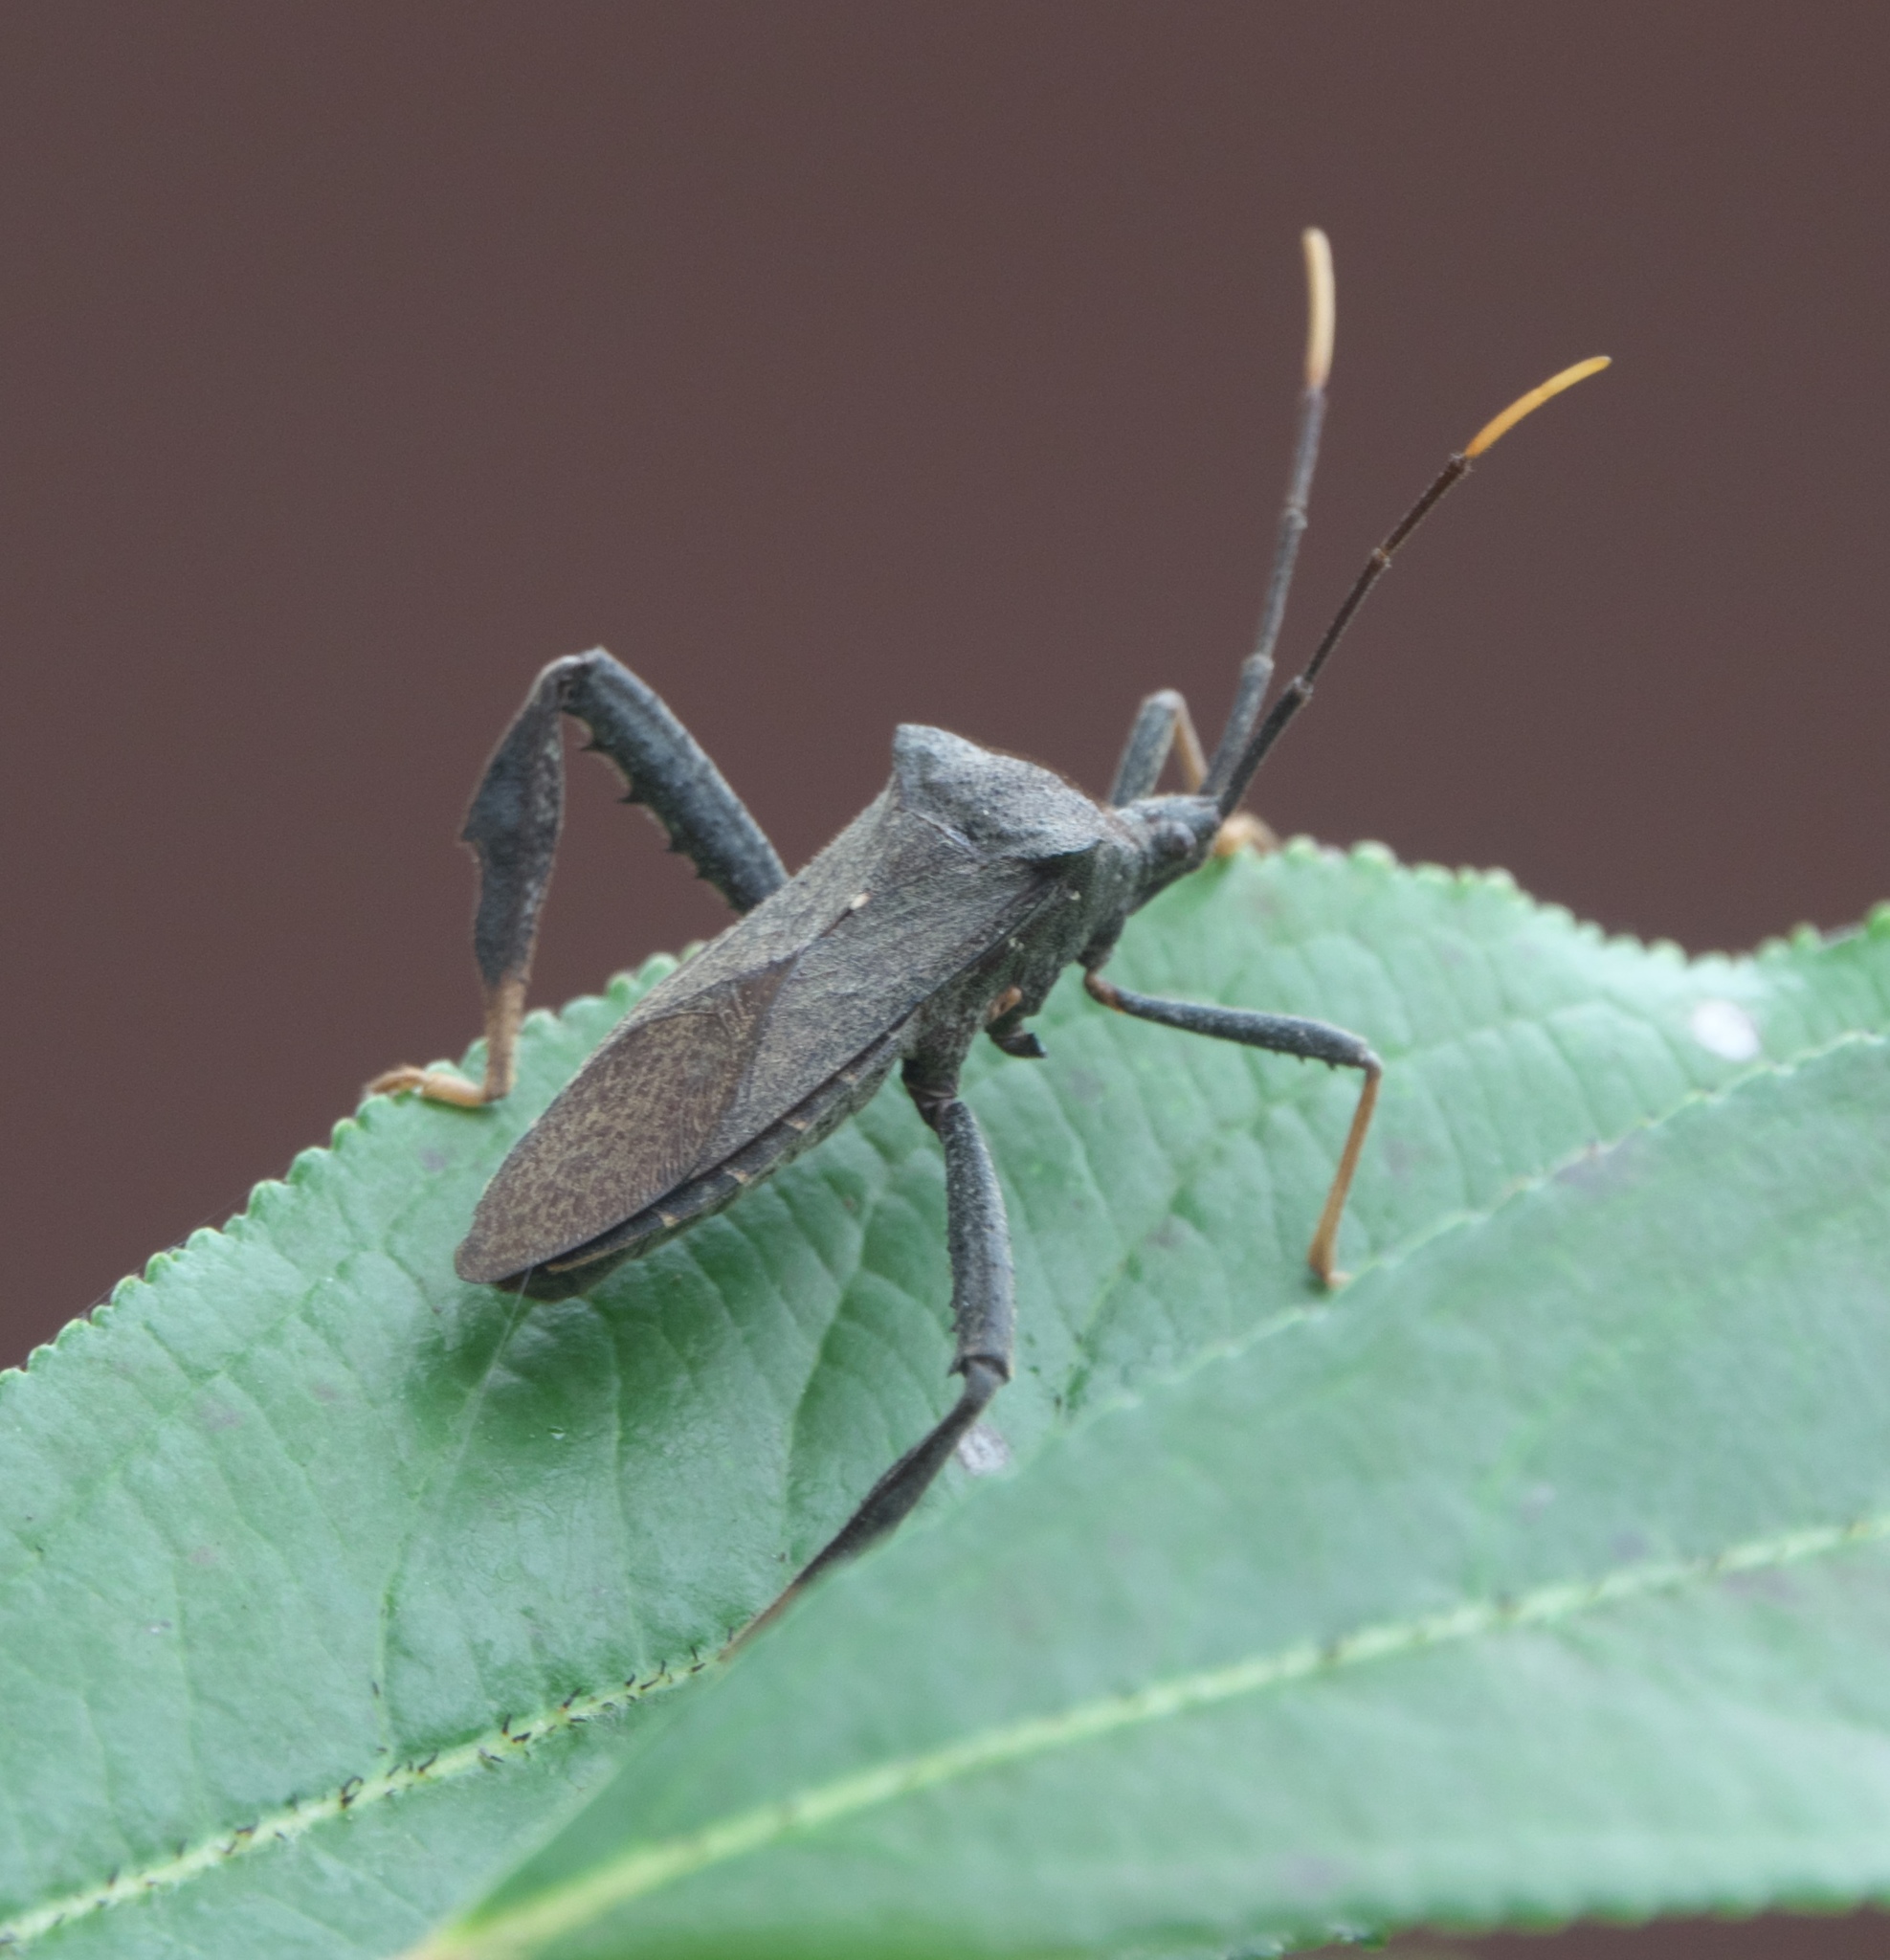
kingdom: Animalia
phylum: Arthropoda
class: Insecta
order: Hemiptera
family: Coreidae
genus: Acanthocephala
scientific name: Acanthocephala terminalis
